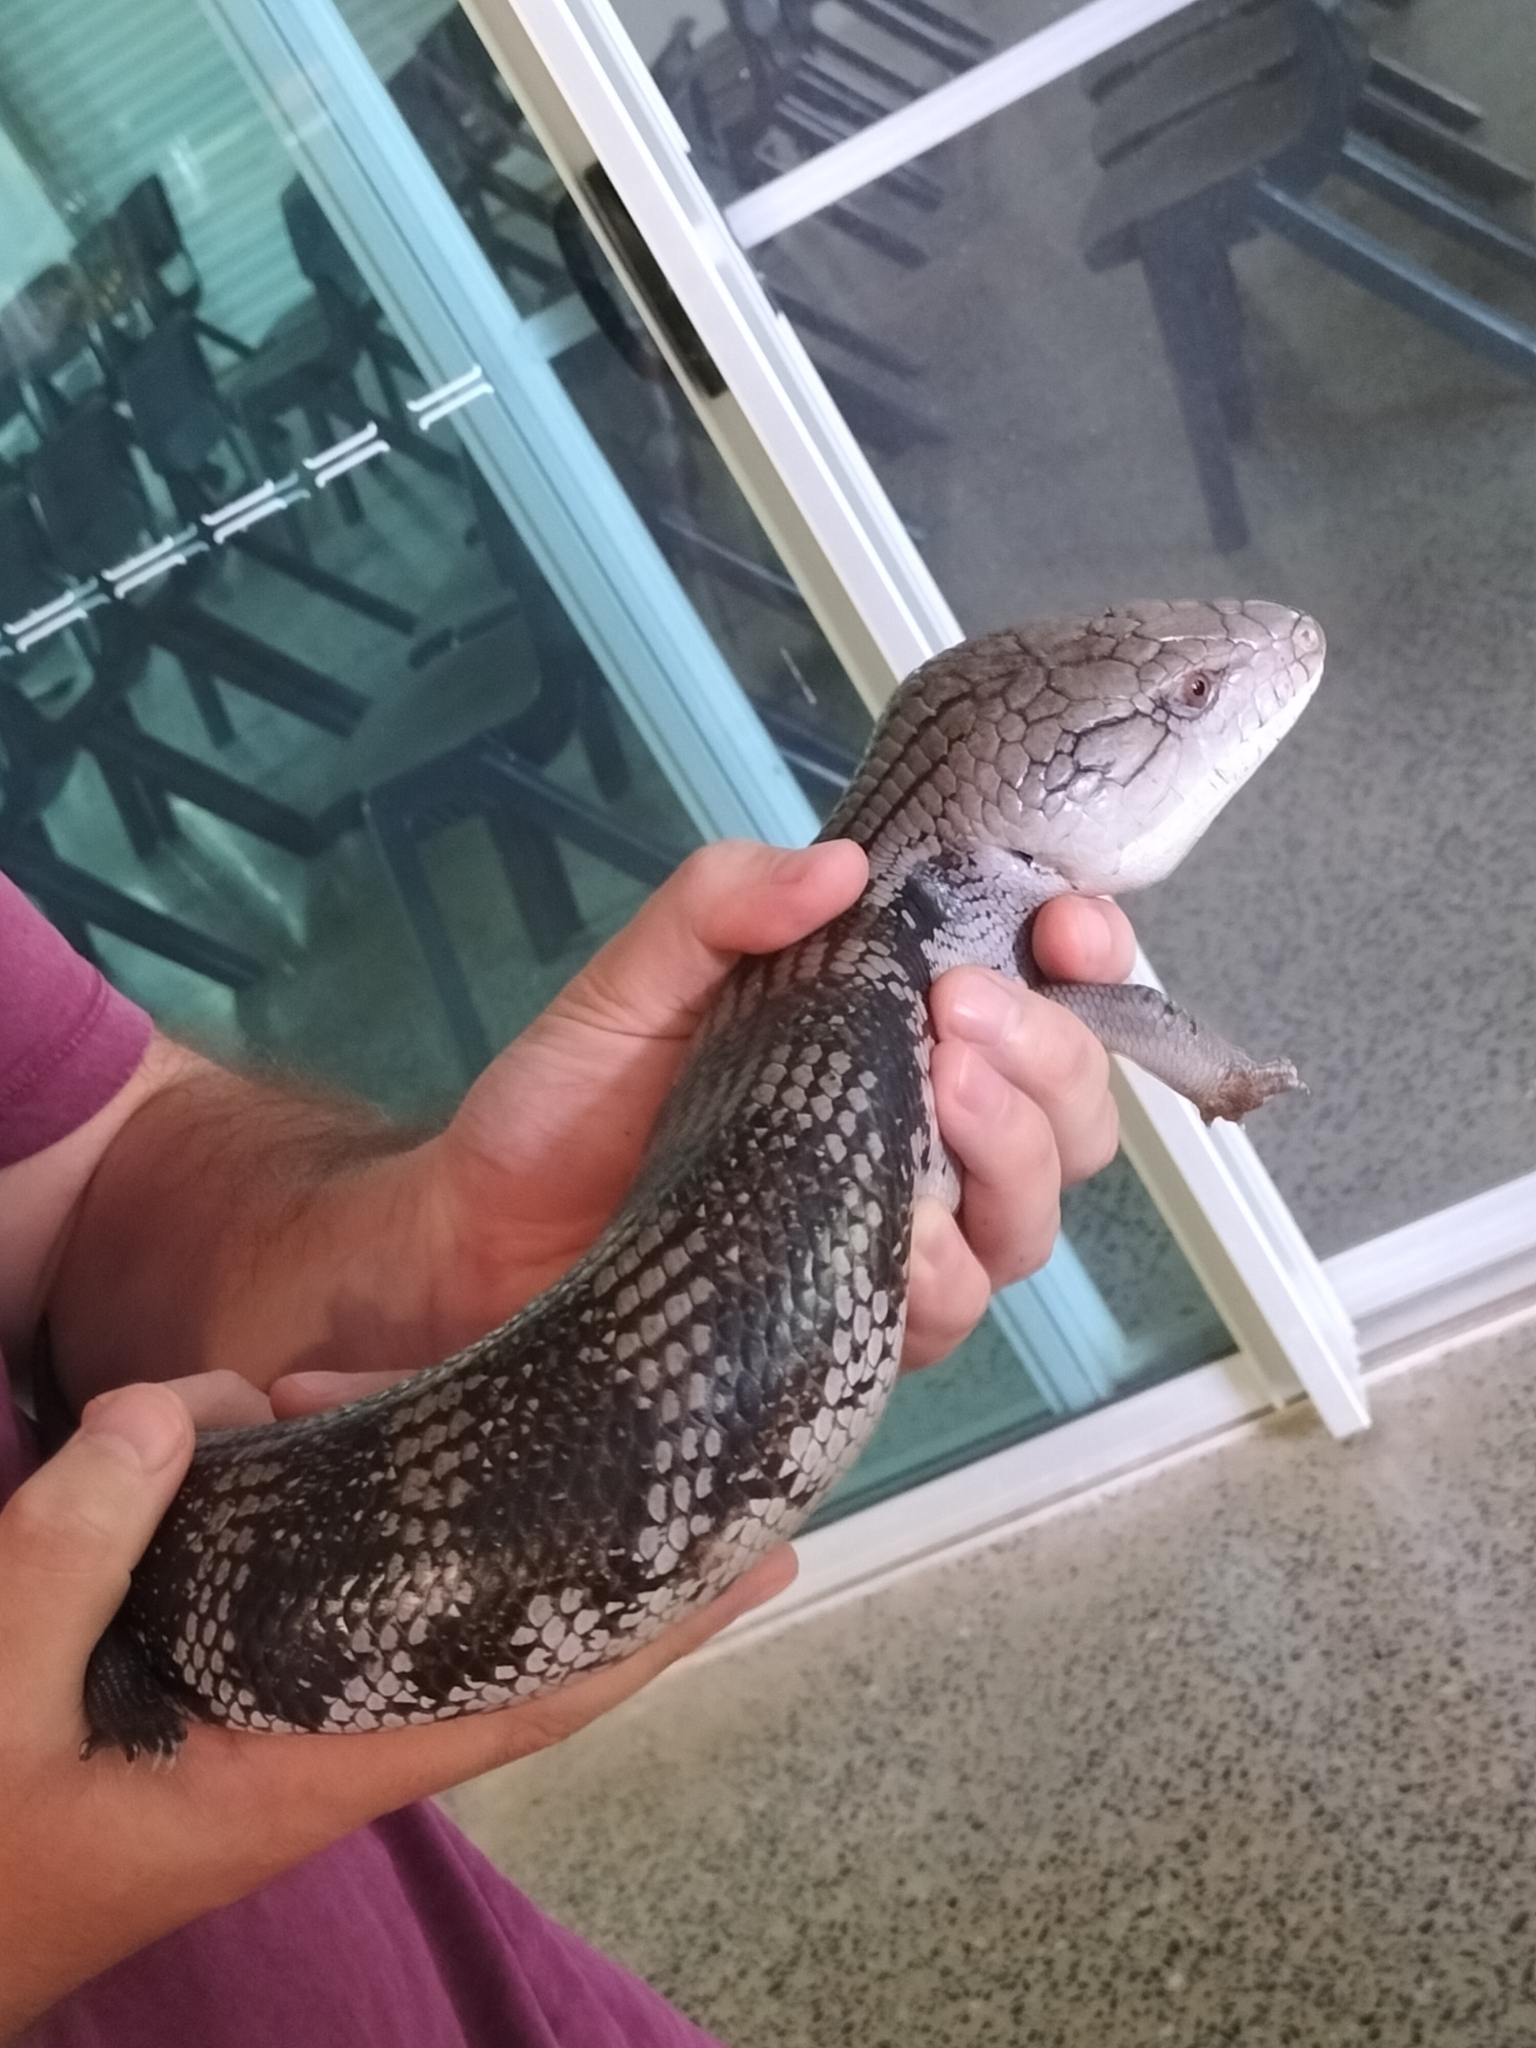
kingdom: Animalia
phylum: Chordata
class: Squamata
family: Scincidae
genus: Tiliqua
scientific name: Tiliqua scincoides
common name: Common bluetongue
